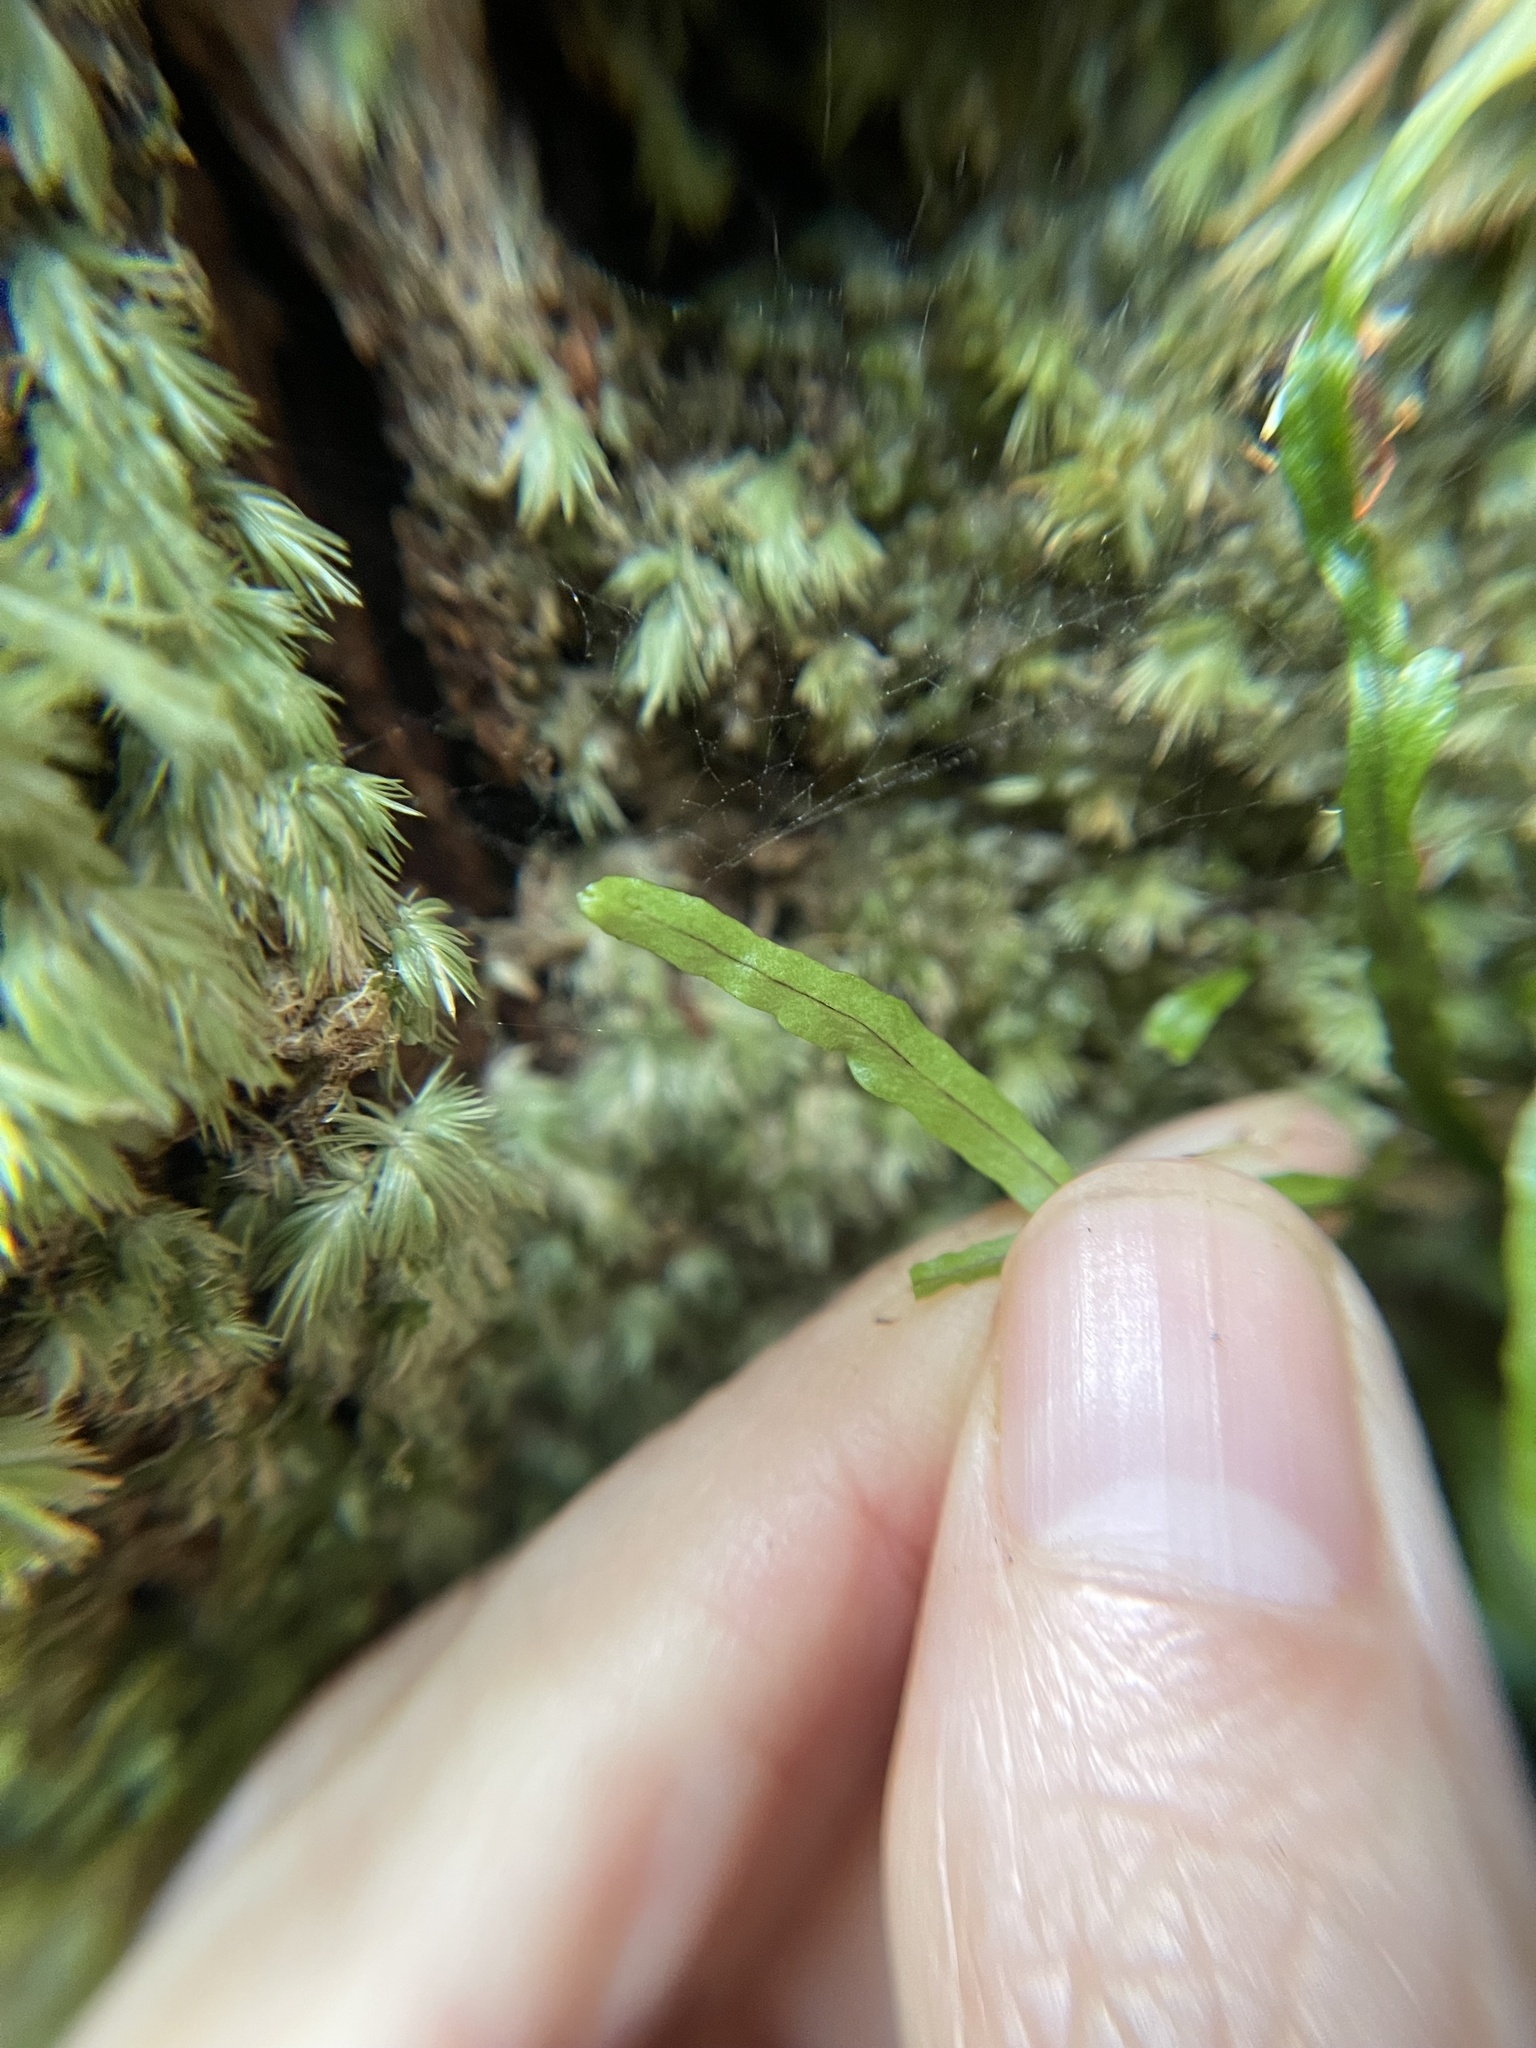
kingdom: Plantae
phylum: Tracheophyta
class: Polypodiopsida
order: Polypodiales
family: Polypodiaceae
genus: Adenophorus
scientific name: Adenophorus tenellus
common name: Kolokolo
